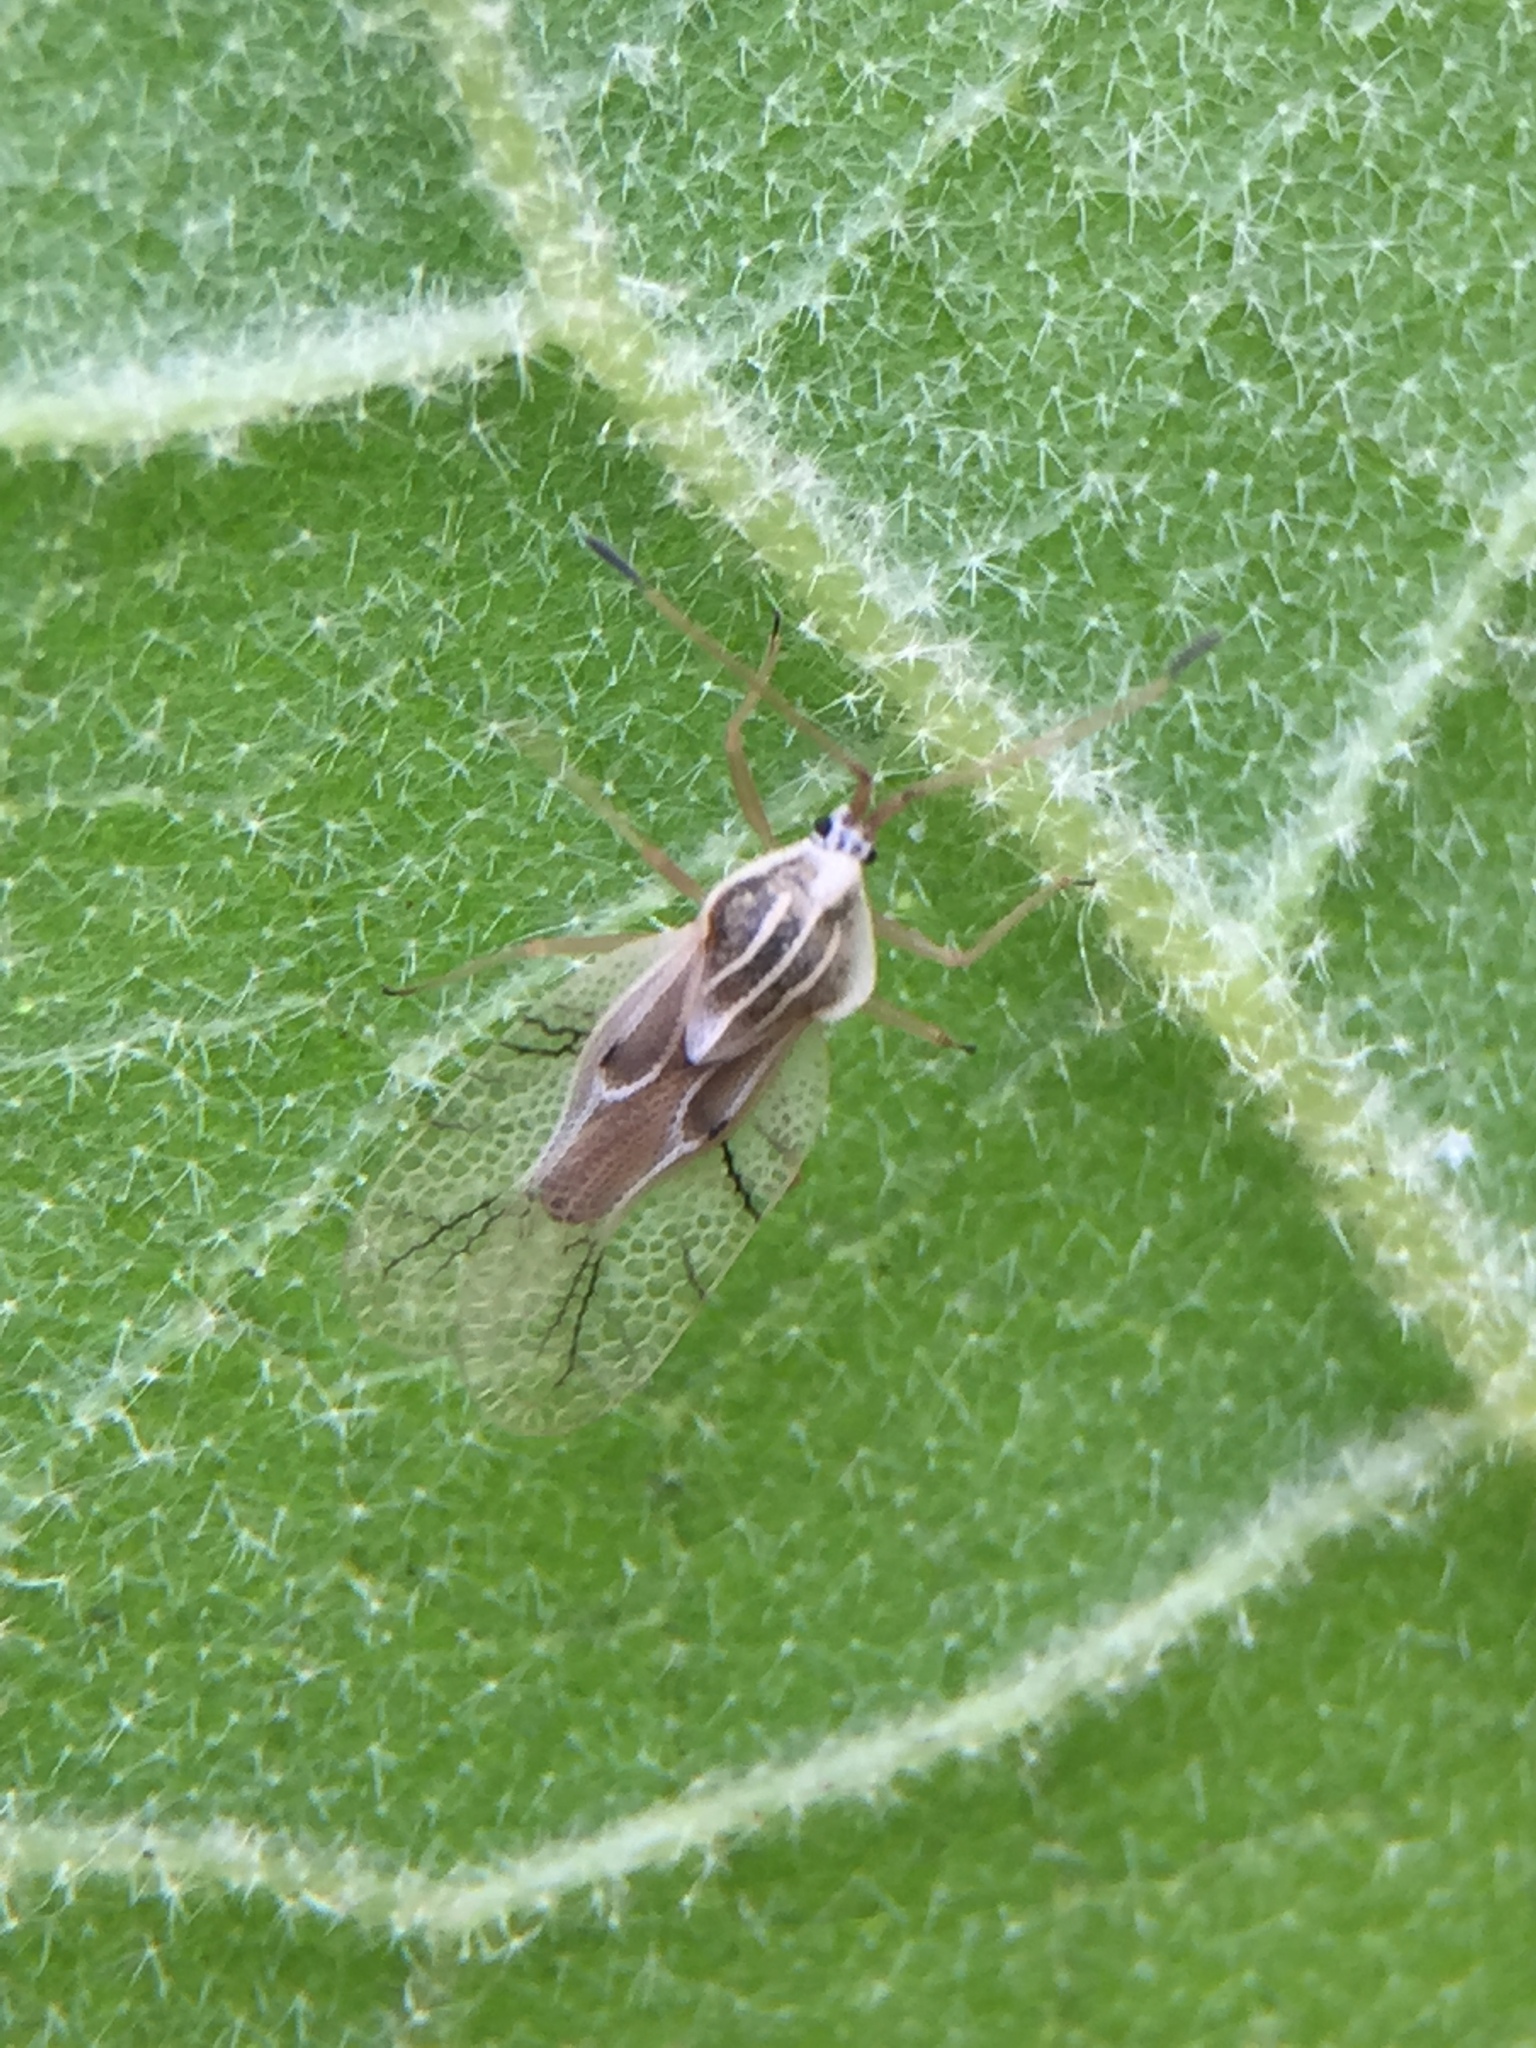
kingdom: Animalia
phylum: Arthropoda
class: Insecta
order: Hemiptera
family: Tingidae
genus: Gargaphia
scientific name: Gargaphia decoris
